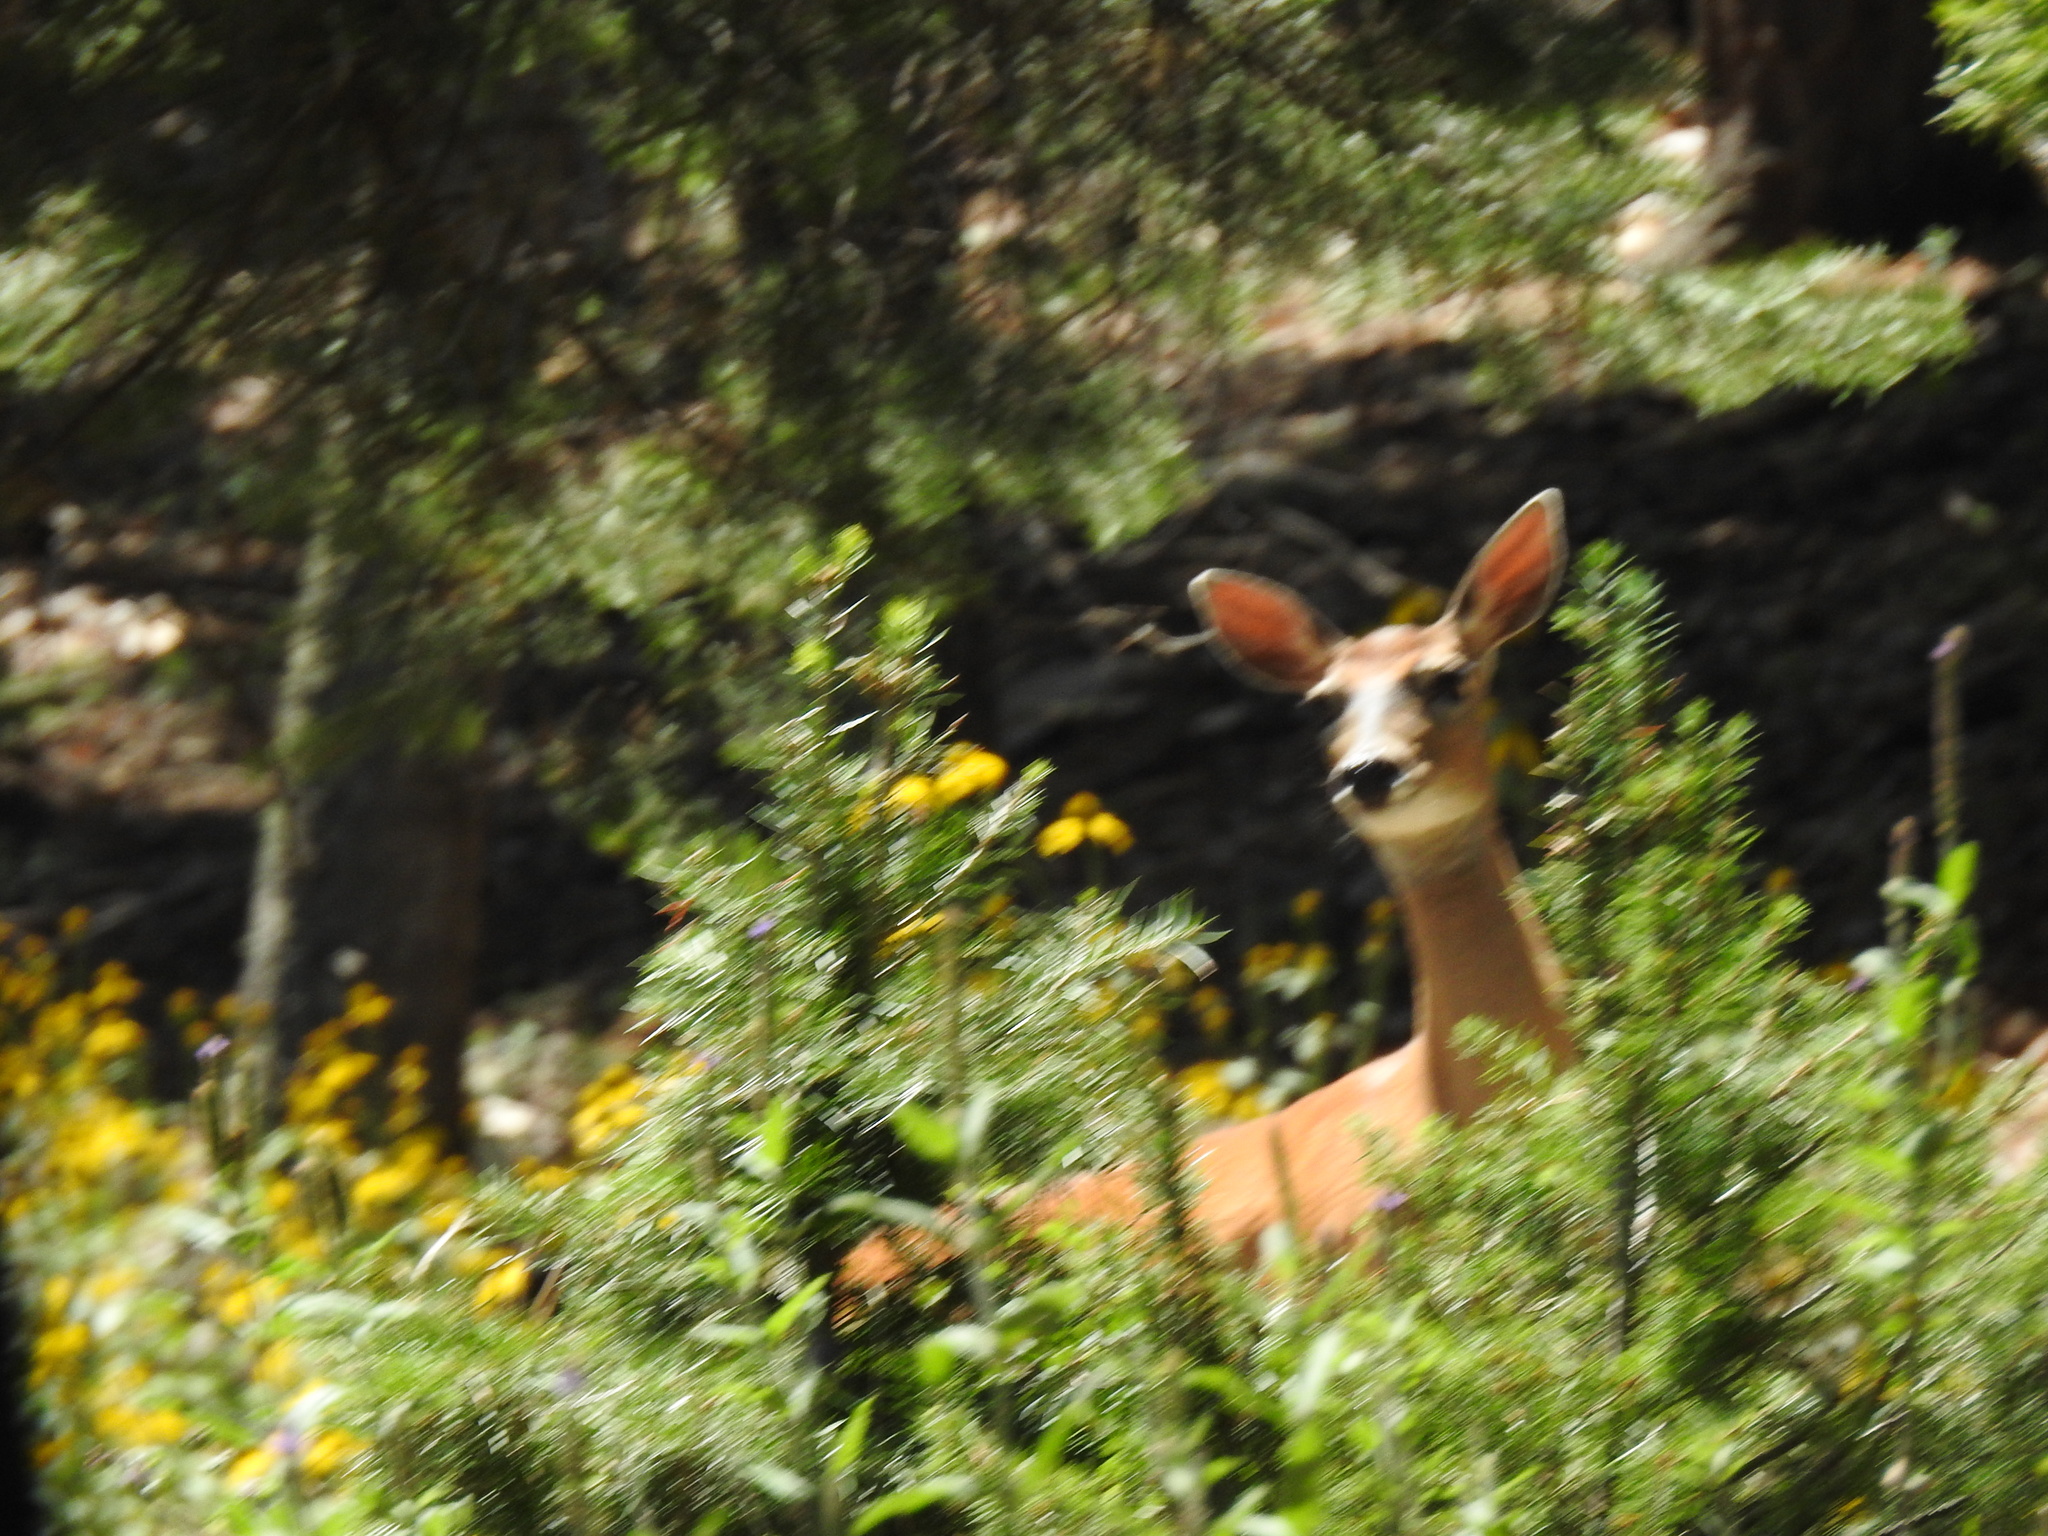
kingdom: Animalia
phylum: Chordata
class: Mammalia
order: Artiodactyla
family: Cervidae
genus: Odocoileus
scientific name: Odocoileus virginianus
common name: White-tailed deer
